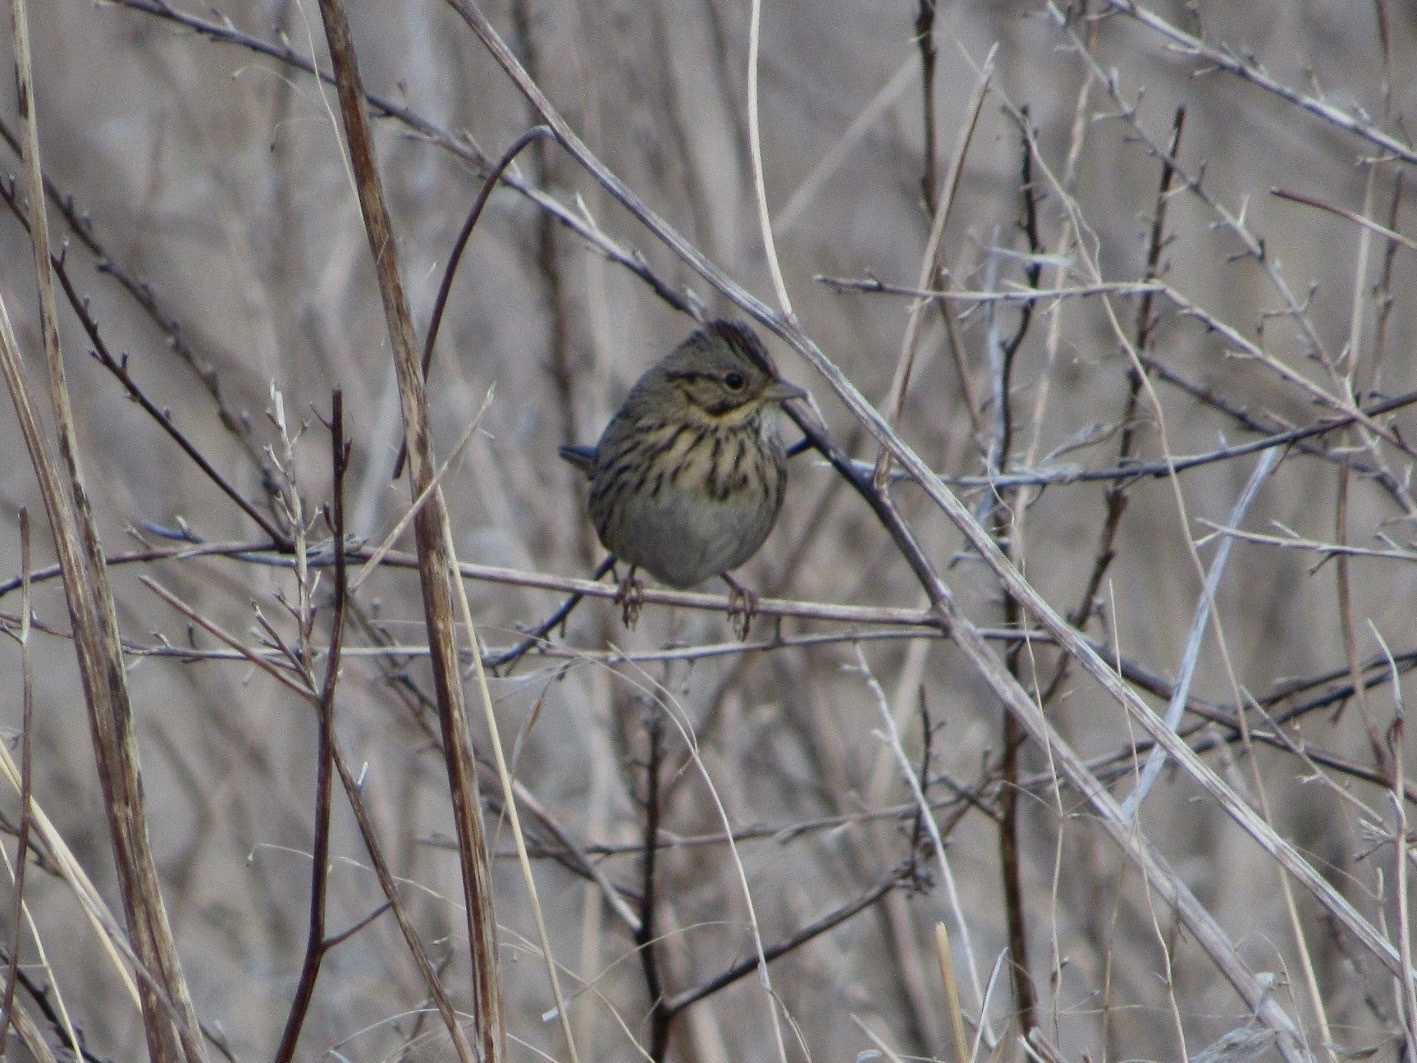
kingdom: Animalia
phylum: Chordata
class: Aves
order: Passeriformes
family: Passerellidae
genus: Melospiza
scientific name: Melospiza lincolnii
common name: Lincoln's sparrow
